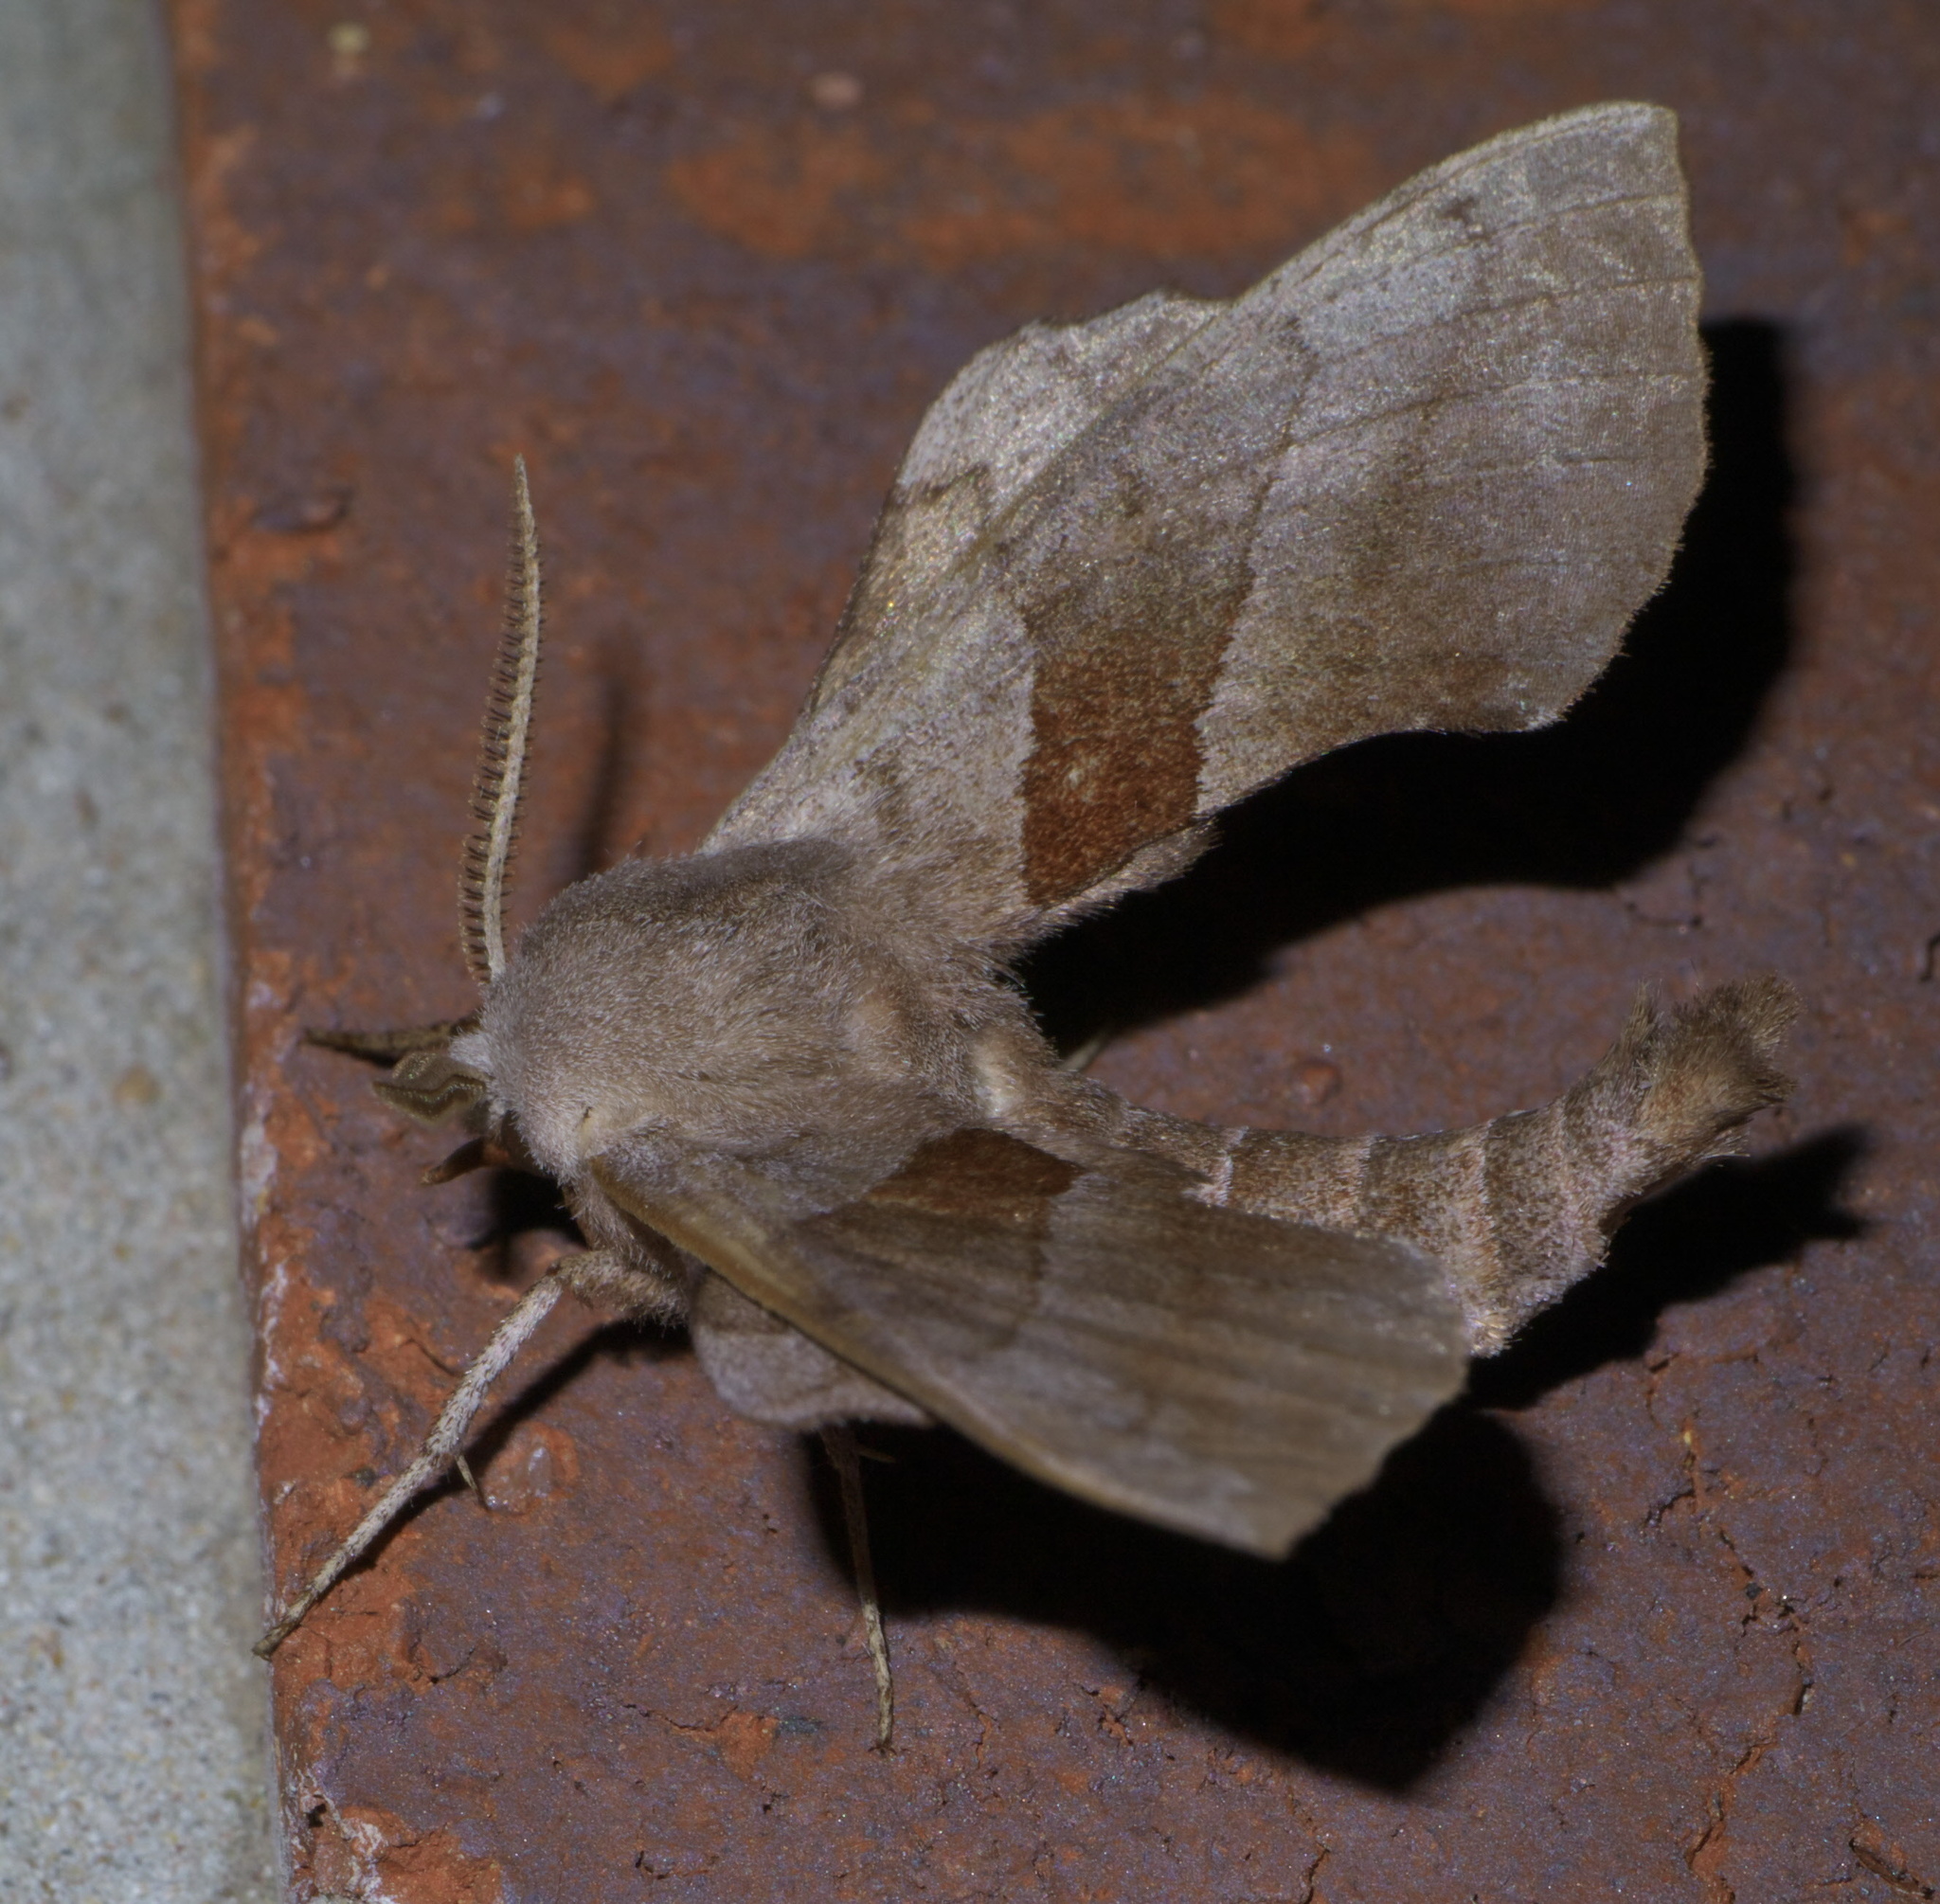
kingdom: Animalia
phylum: Arthropoda
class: Insecta
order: Lepidoptera
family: Sphingidae
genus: Amorpha
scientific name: Amorpha juglandis
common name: Walnut sphinx
